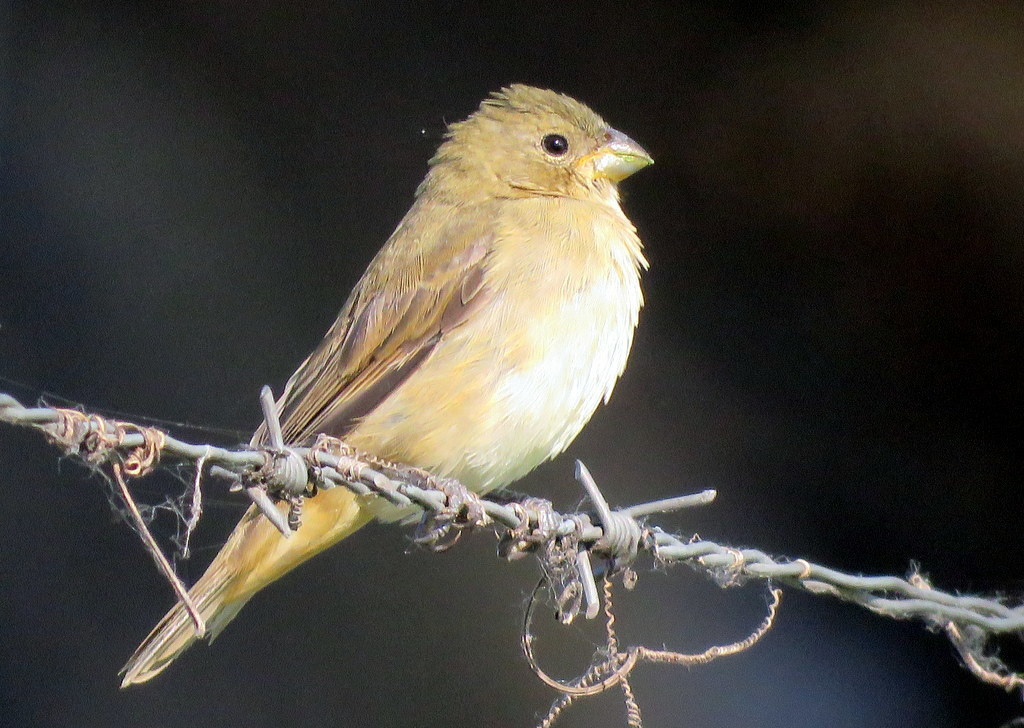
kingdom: Animalia
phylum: Chordata
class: Aves
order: Passeriformes
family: Thraupidae
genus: Sporophila
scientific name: Sporophila caerulescens
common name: Double-collared seedeater
